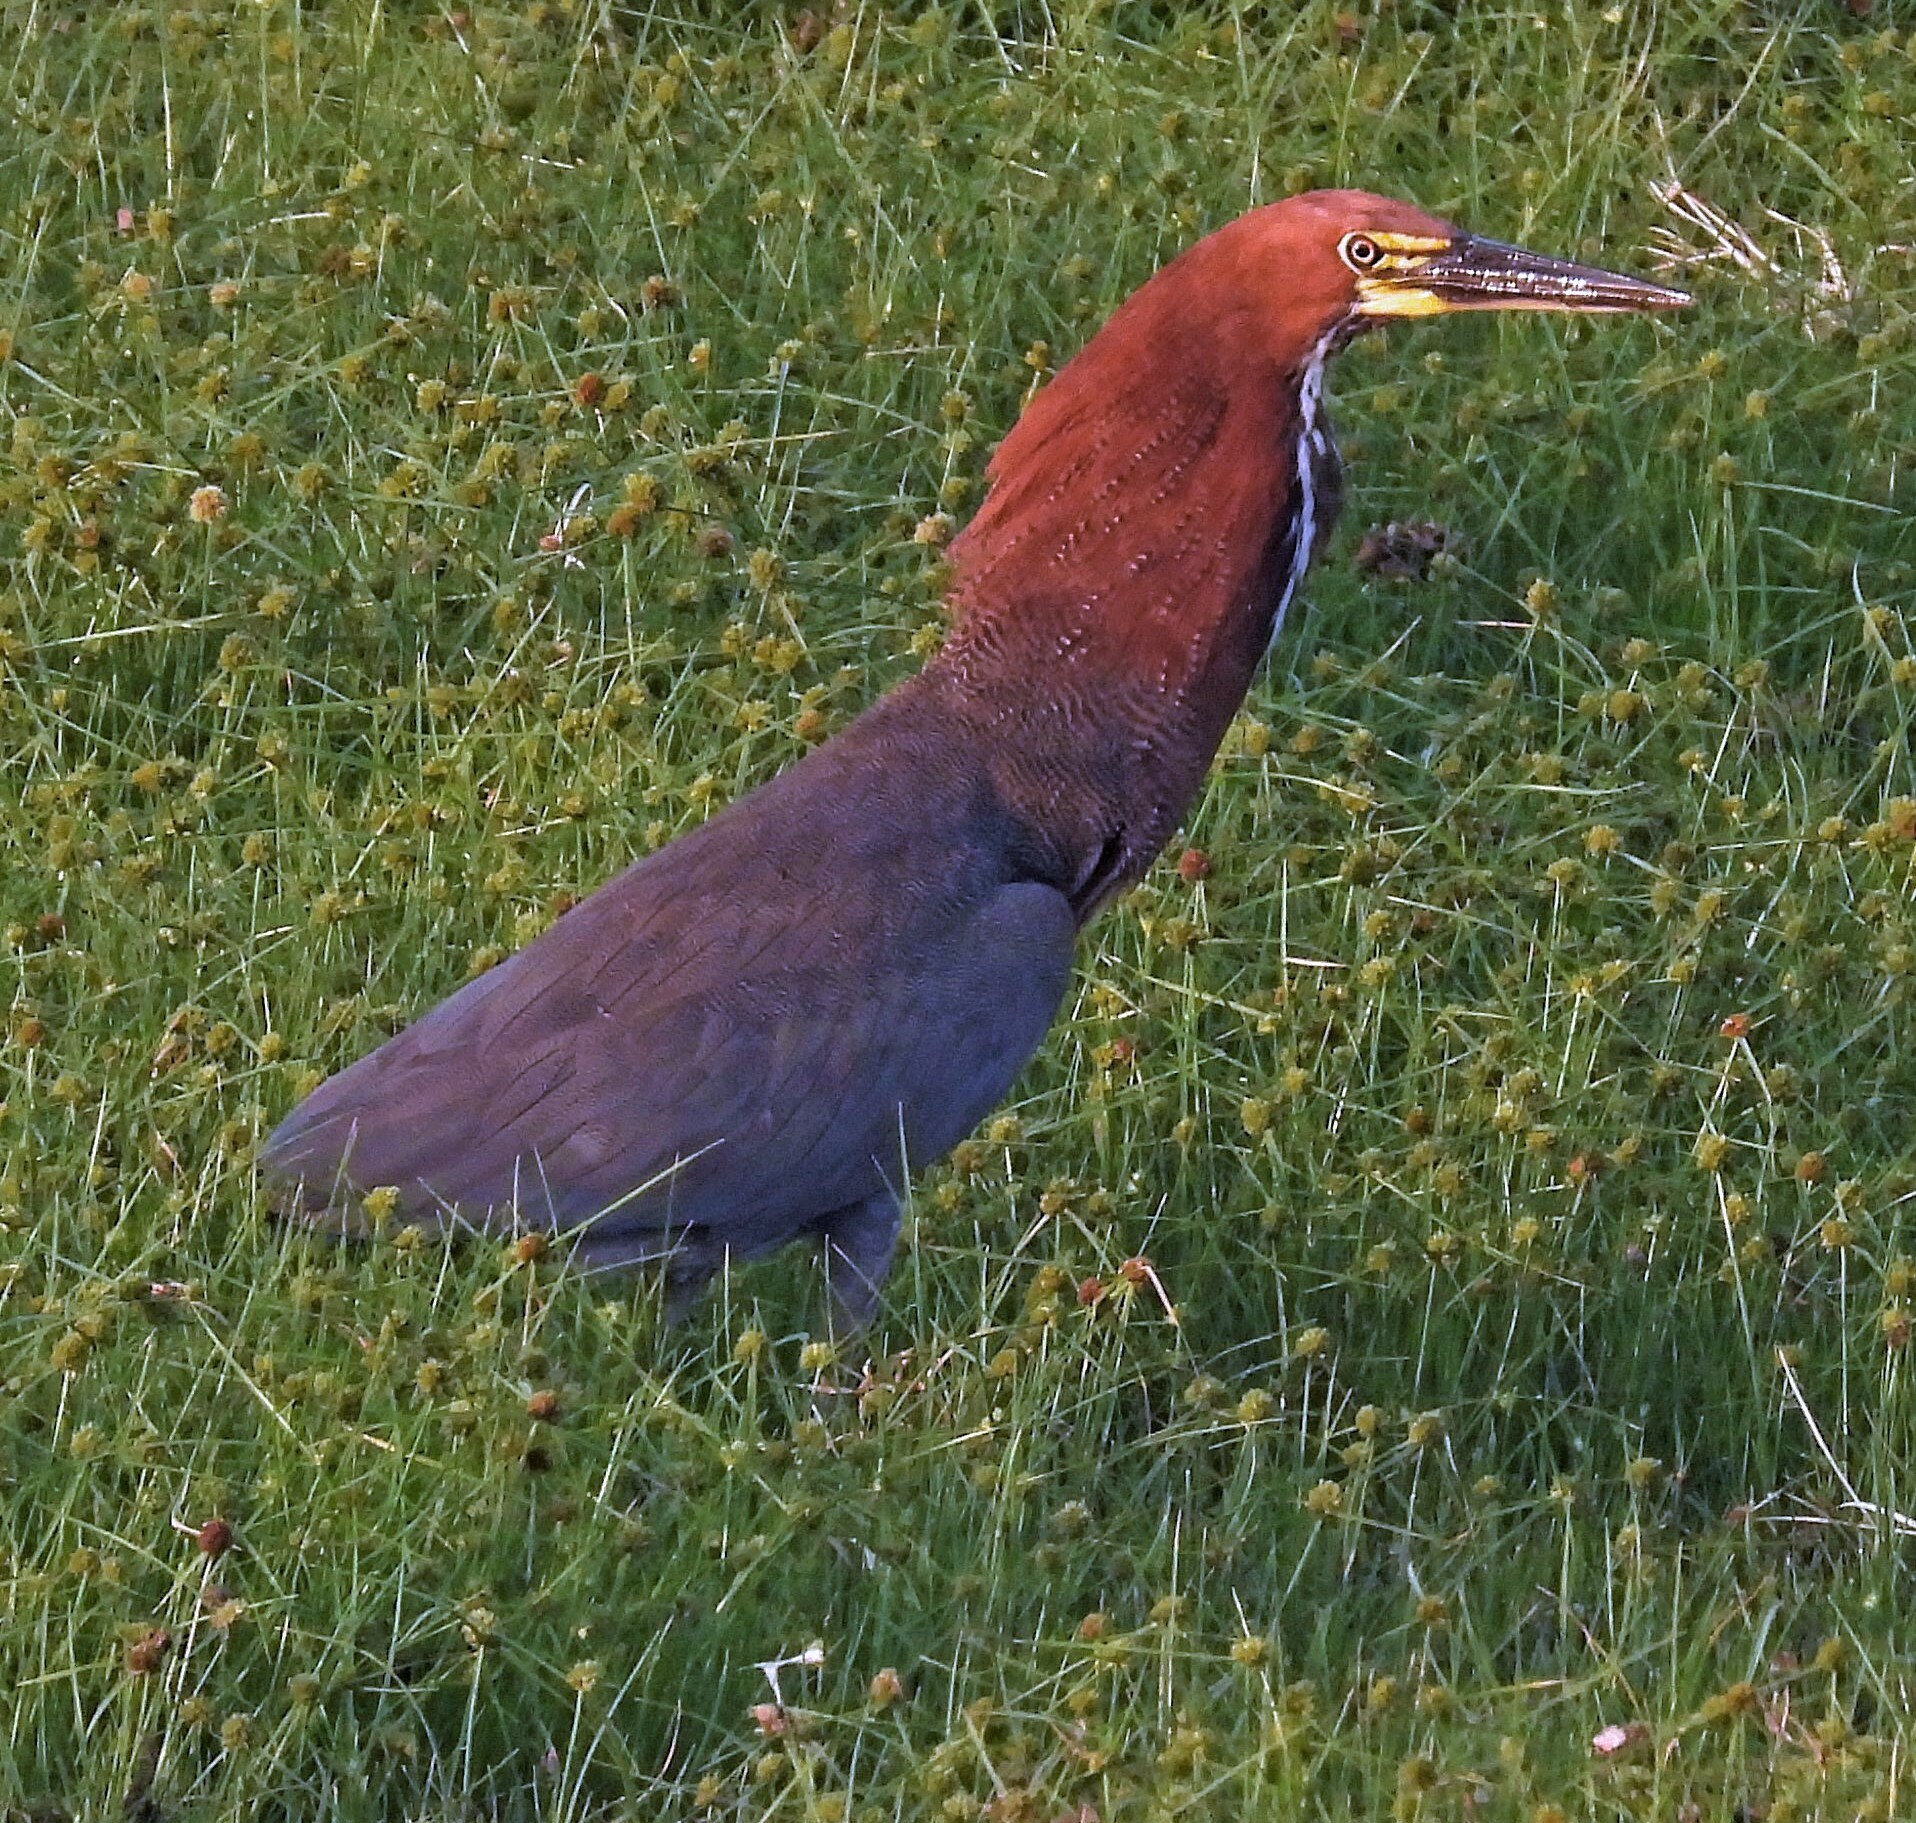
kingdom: Animalia
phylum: Chordata
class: Aves
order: Pelecaniformes
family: Ardeidae
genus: Tigrisoma
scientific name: Tigrisoma lineatum
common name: Rufescent tiger-heron
